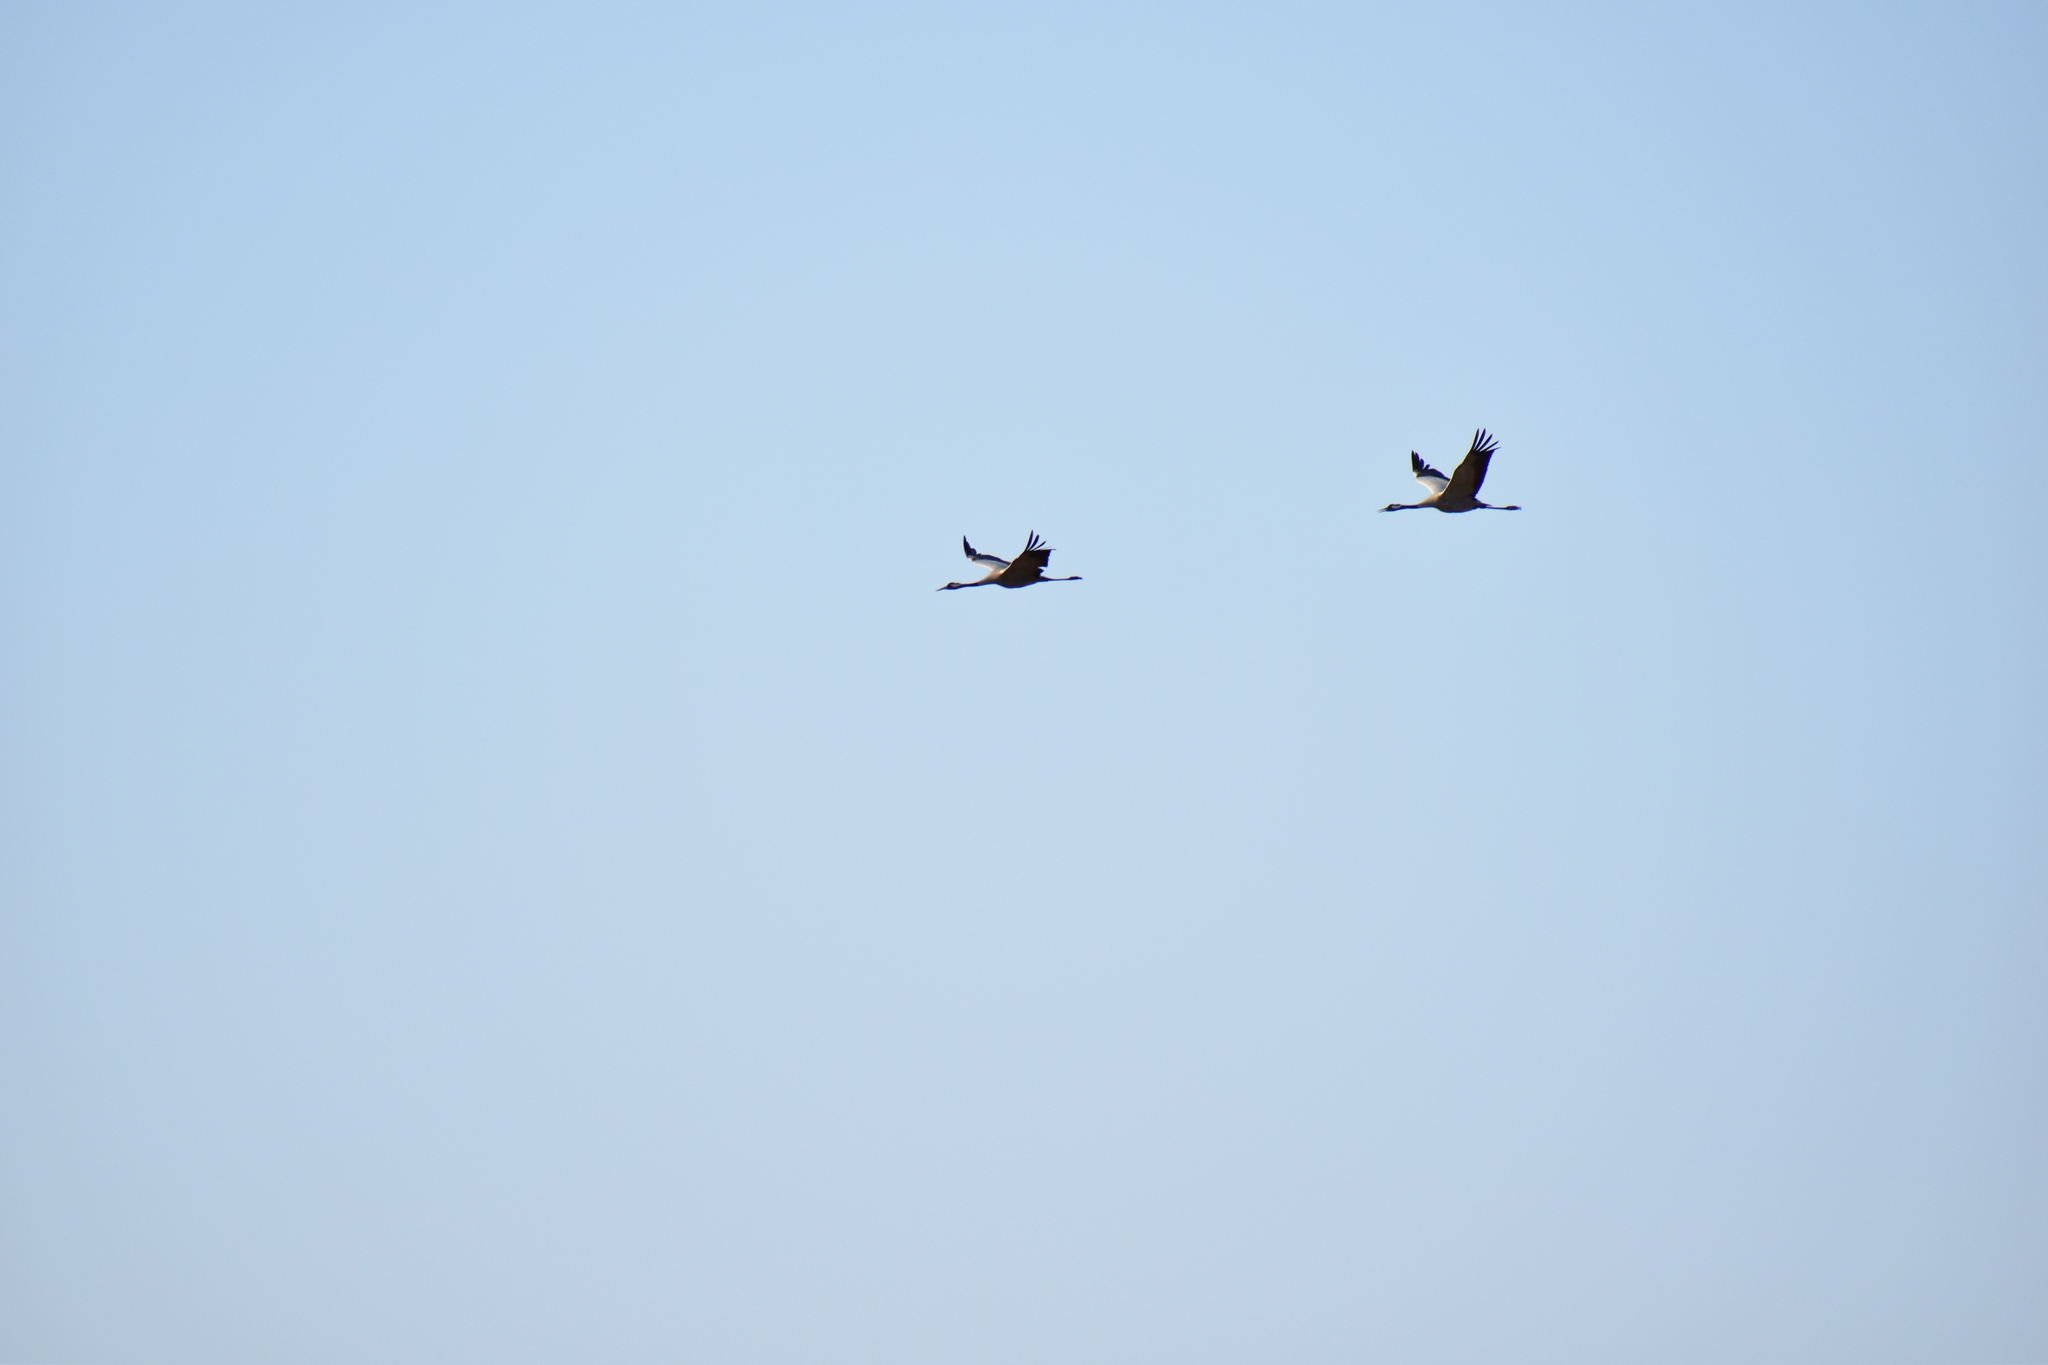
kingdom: Animalia
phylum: Chordata
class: Aves
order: Gruiformes
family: Gruidae
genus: Grus
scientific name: Grus grus
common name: Common crane
